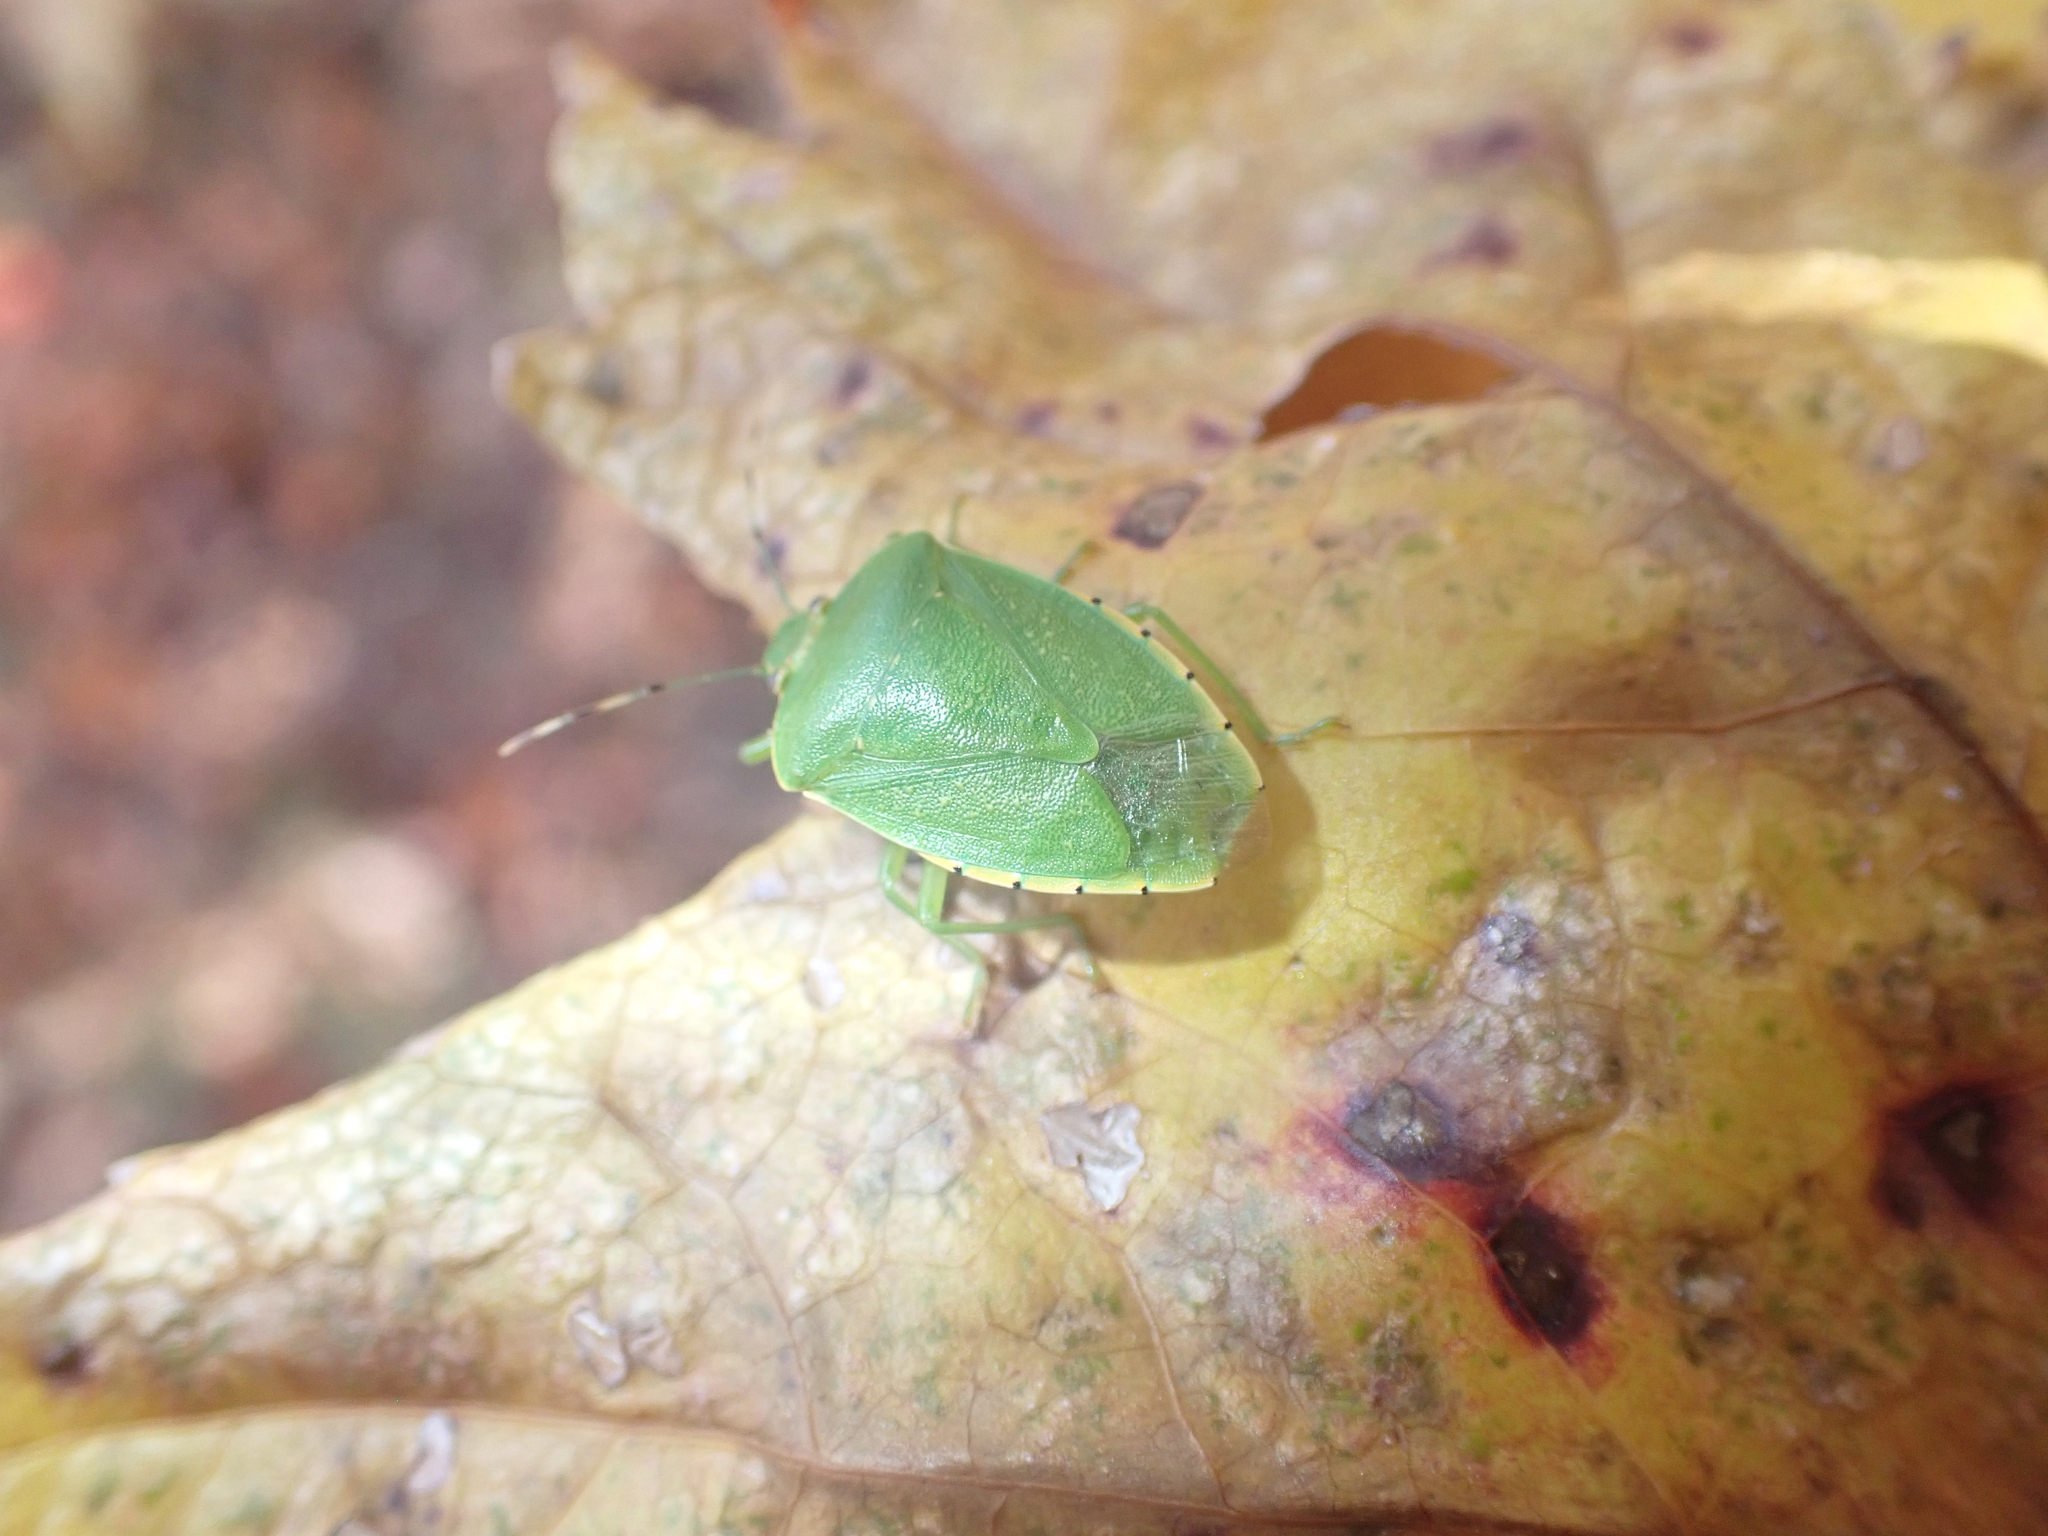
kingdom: Animalia
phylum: Arthropoda
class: Insecta
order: Hemiptera
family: Pentatomidae
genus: Chinavia
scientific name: Chinavia hilaris
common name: Green stink bug
